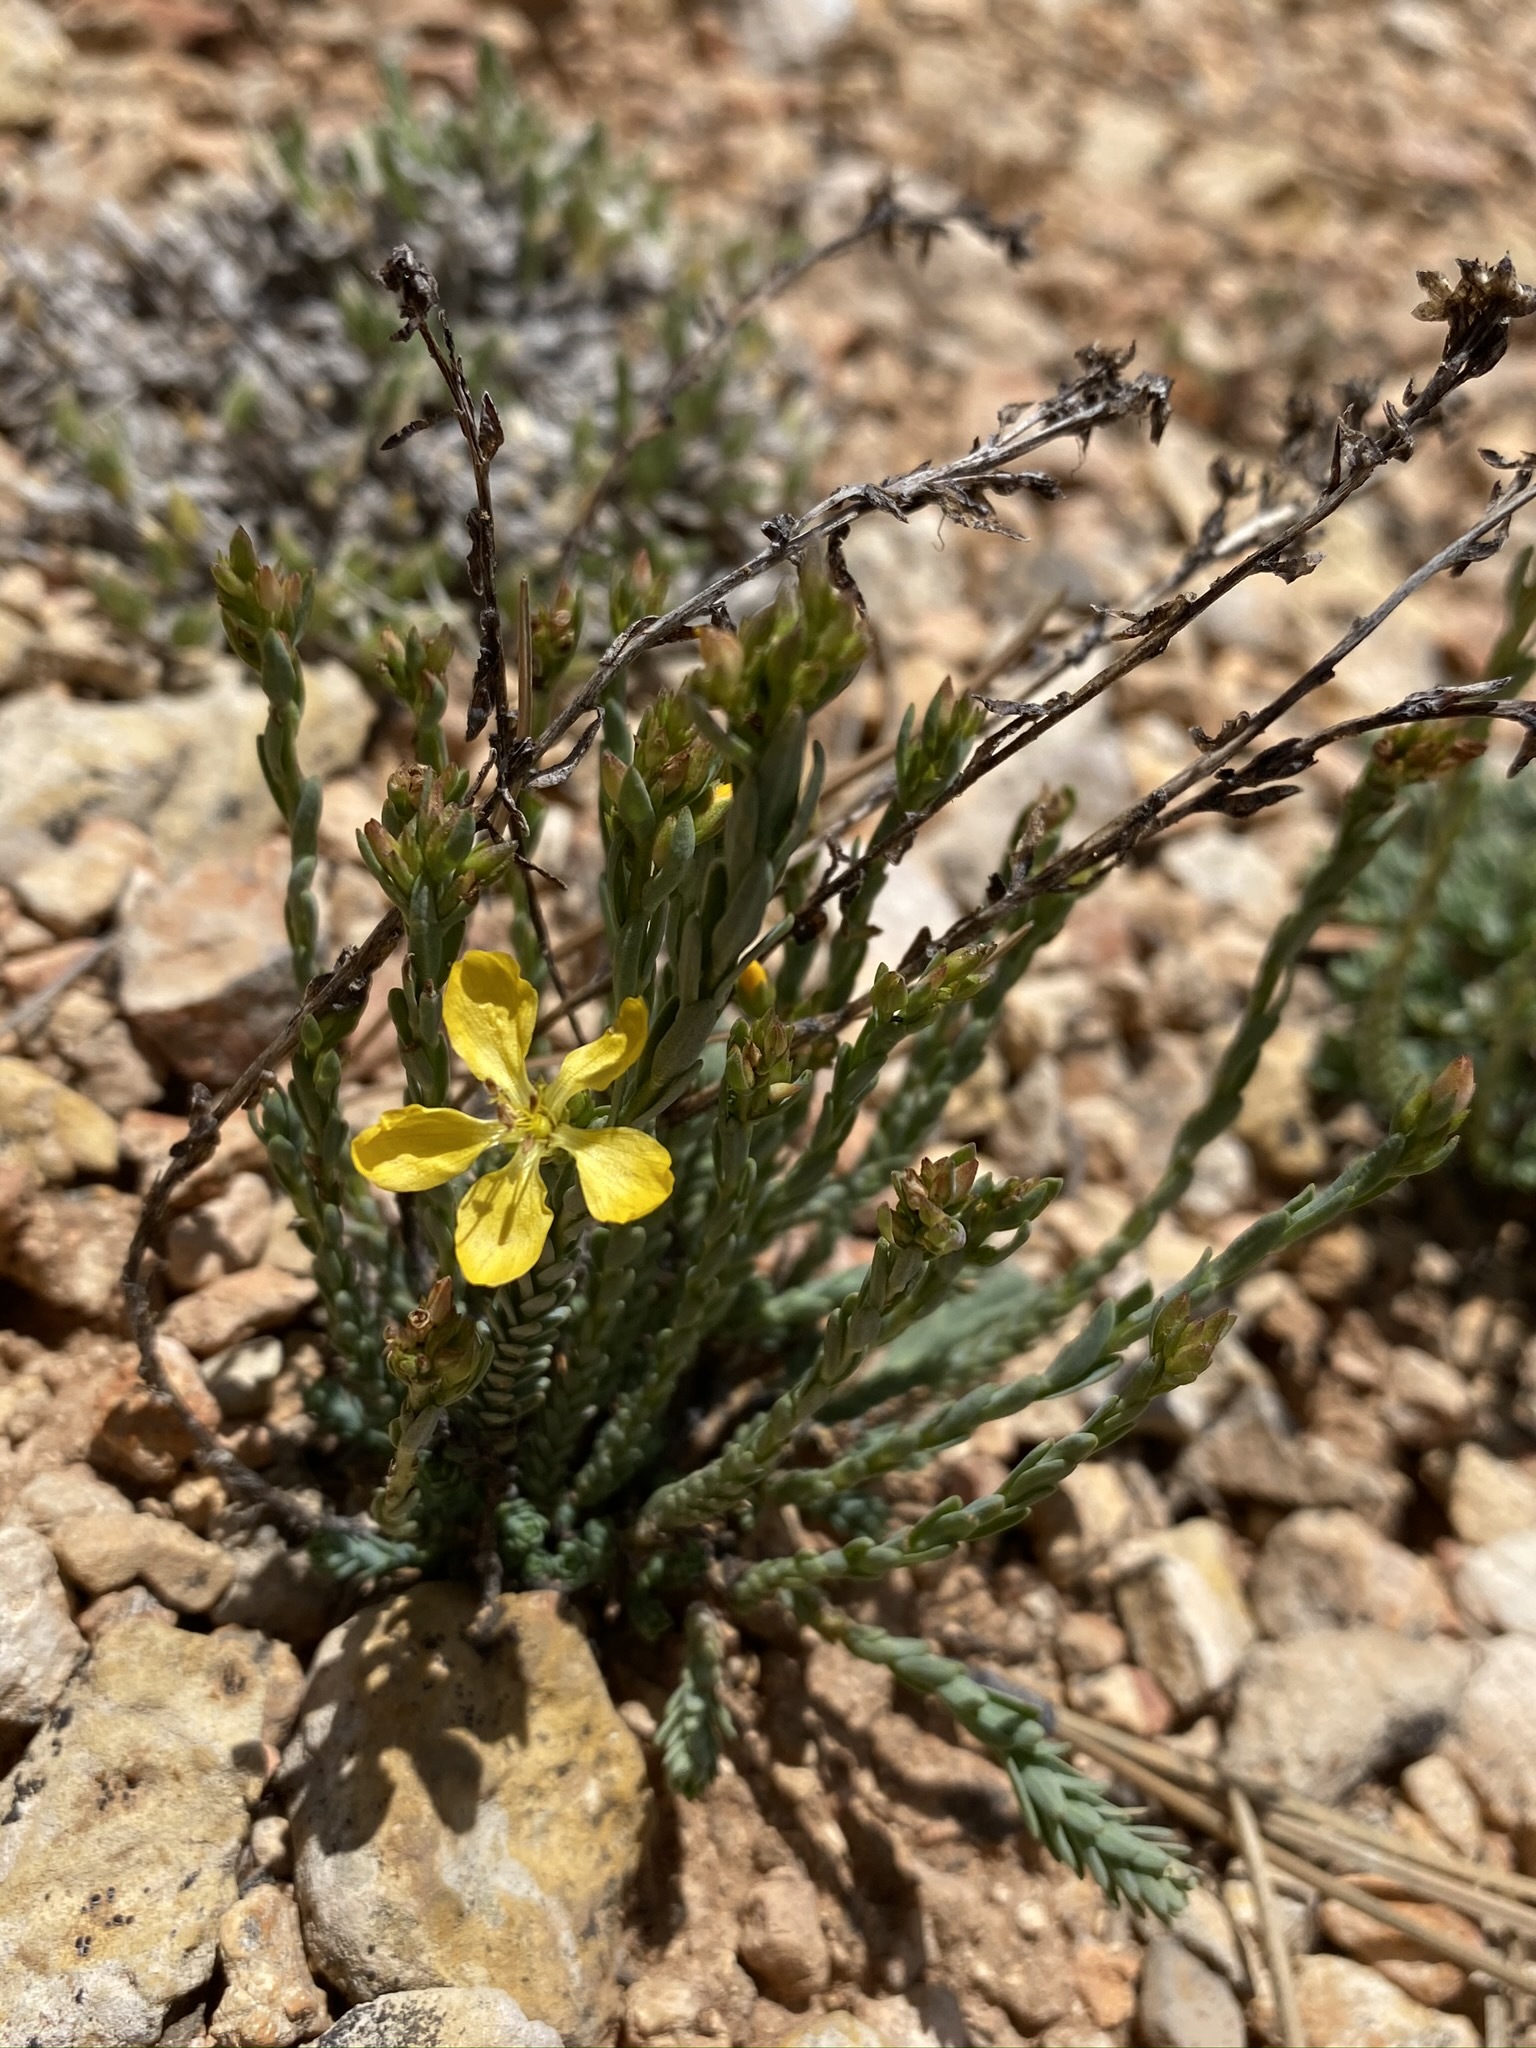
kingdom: Plantae
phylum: Tracheophyta
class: Magnoliopsida
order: Malpighiales
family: Linaceae
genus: Linum
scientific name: Linum kingii
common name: King's yellow flax
